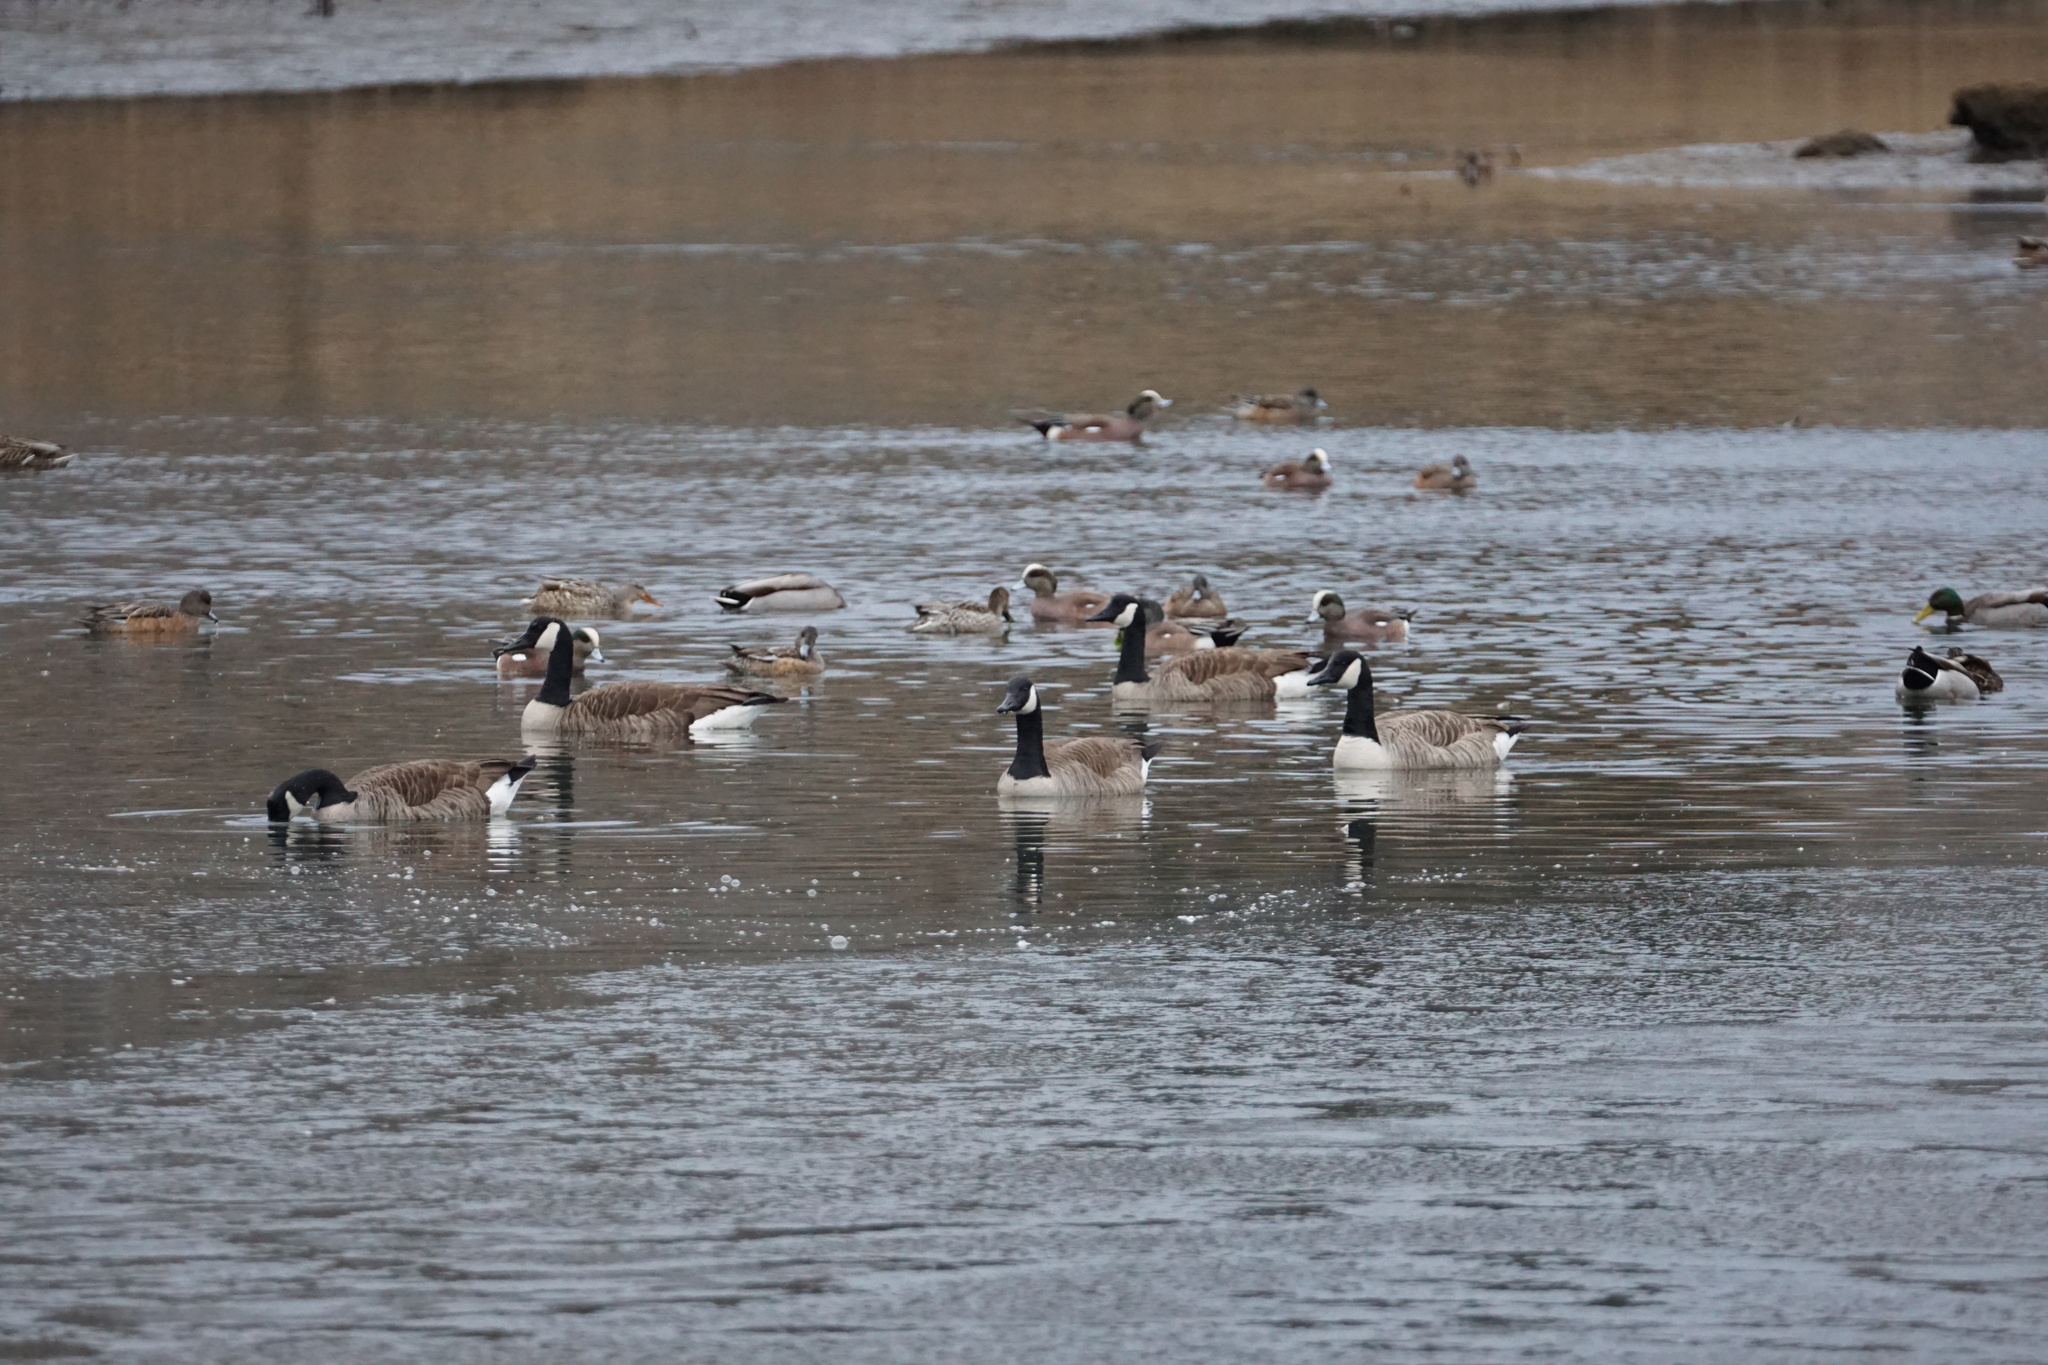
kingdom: Animalia
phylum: Chordata
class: Aves
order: Anseriformes
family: Anatidae
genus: Branta
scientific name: Branta canadensis
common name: Canada goose
